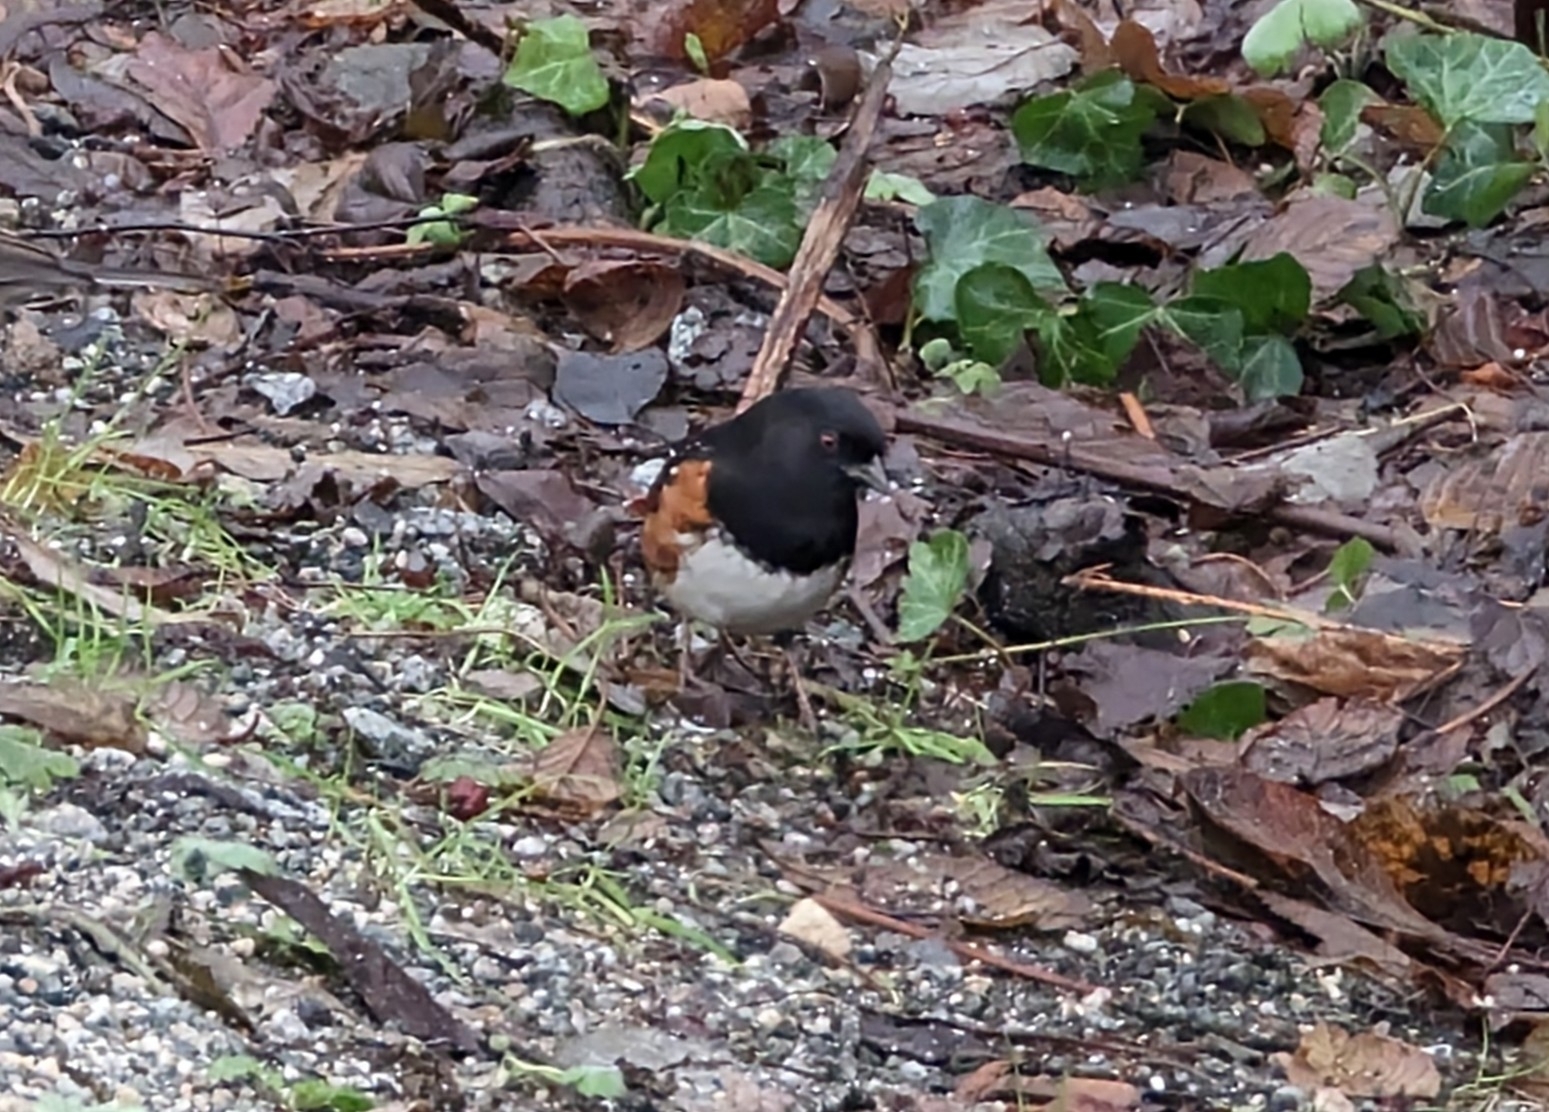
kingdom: Animalia
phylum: Chordata
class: Aves
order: Passeriformes
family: Passerellidae
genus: Pipilo
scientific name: Pipilo maculatus
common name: Spotted towhee
